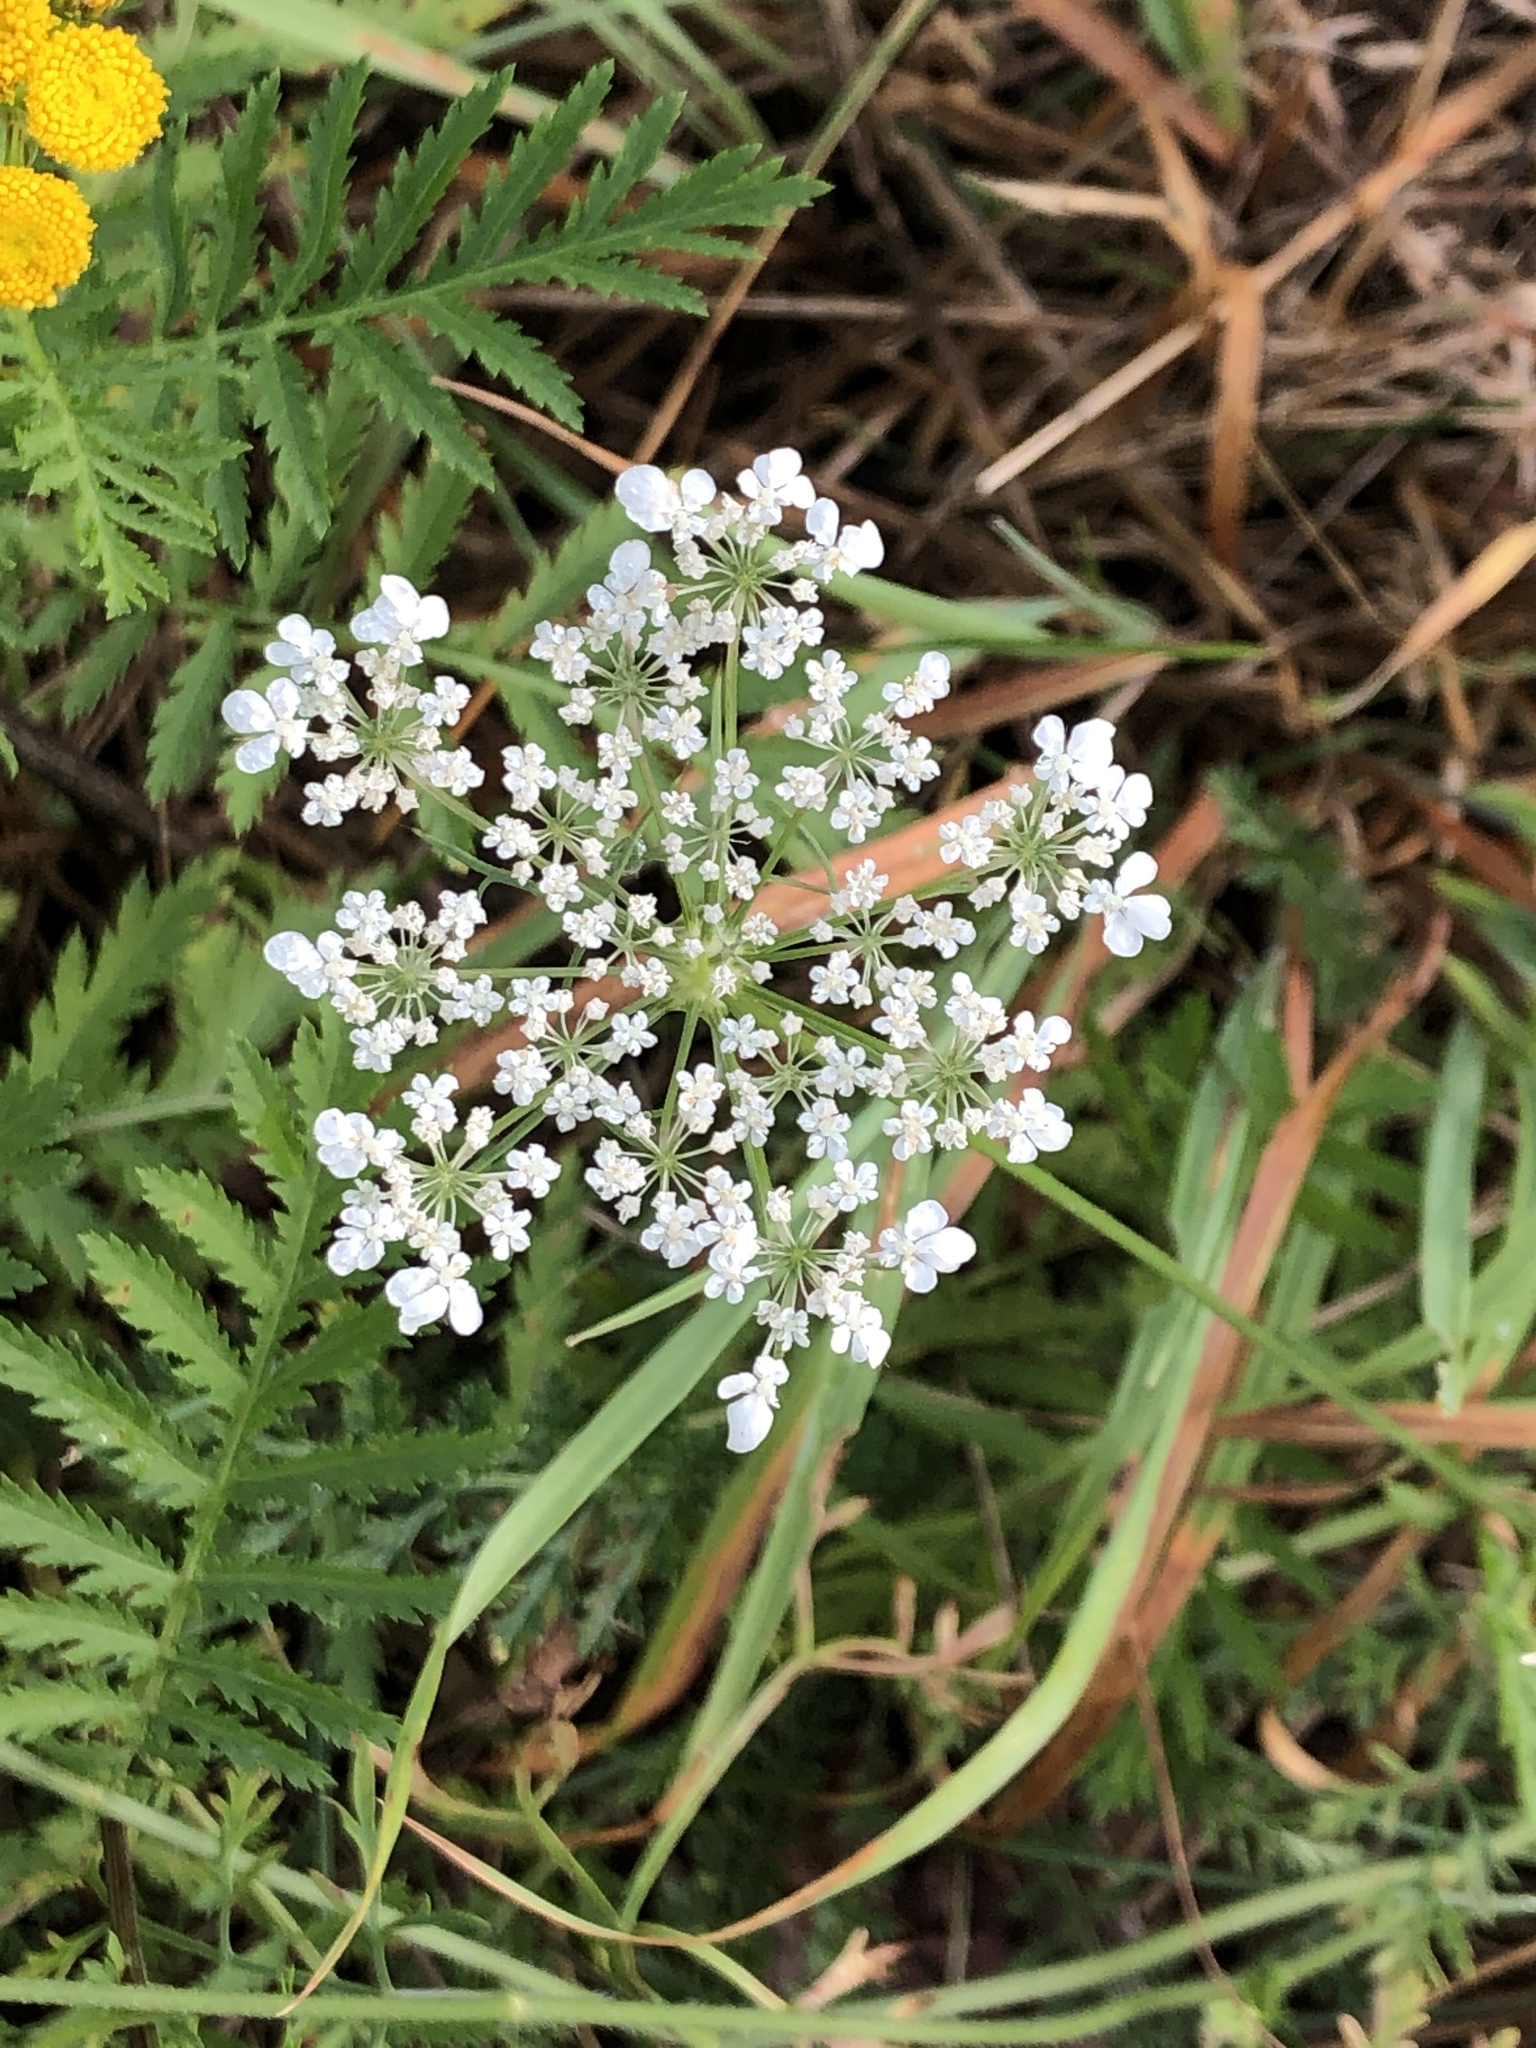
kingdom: Plantae
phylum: Tracheophyta
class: Magnoliopsida
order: Apiales
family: Apiaceae
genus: Daucus
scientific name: Daucus carota
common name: Wild carrot
